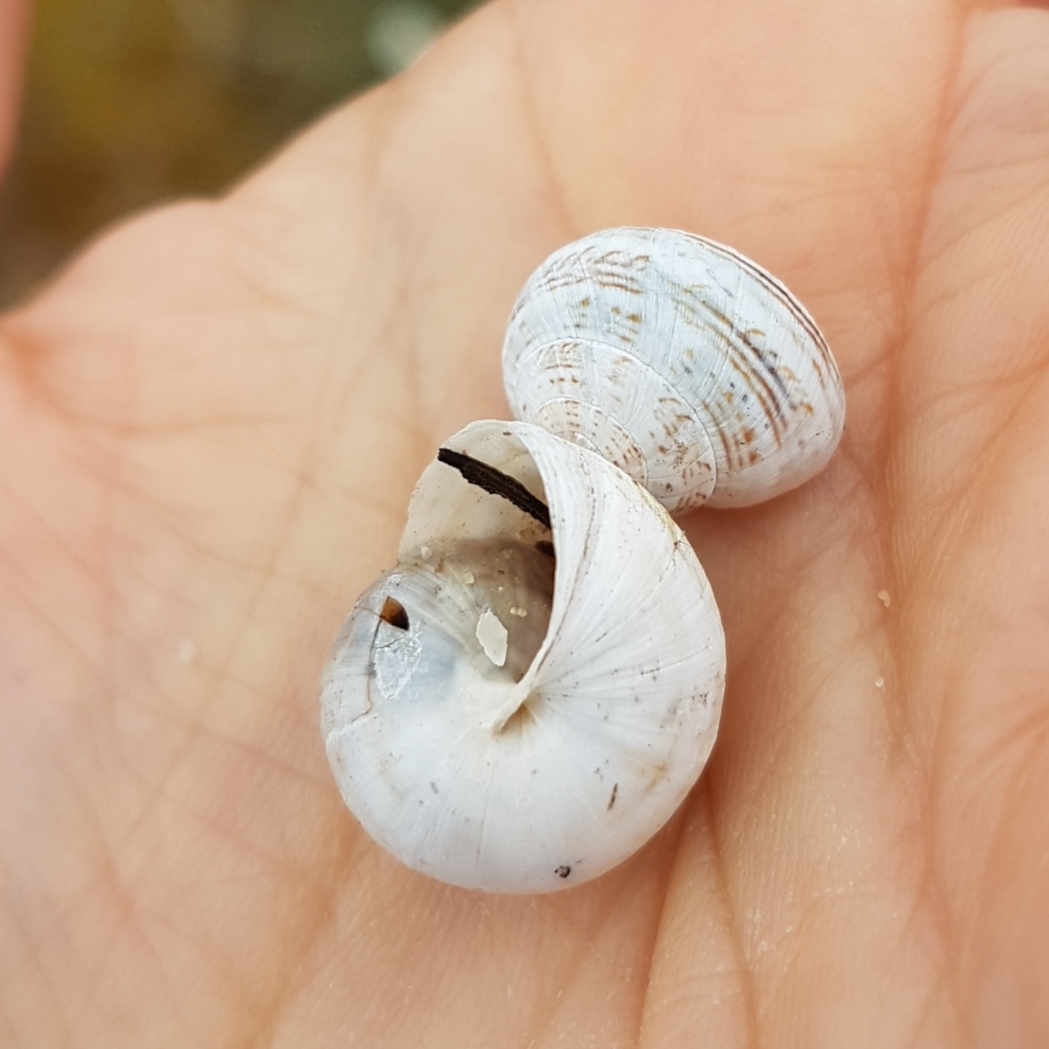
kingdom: Animalia
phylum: Mollusca
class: Gastropoda
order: Stylommatophora
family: Helicidae
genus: Theba
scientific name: Theba pisana
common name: White snail
